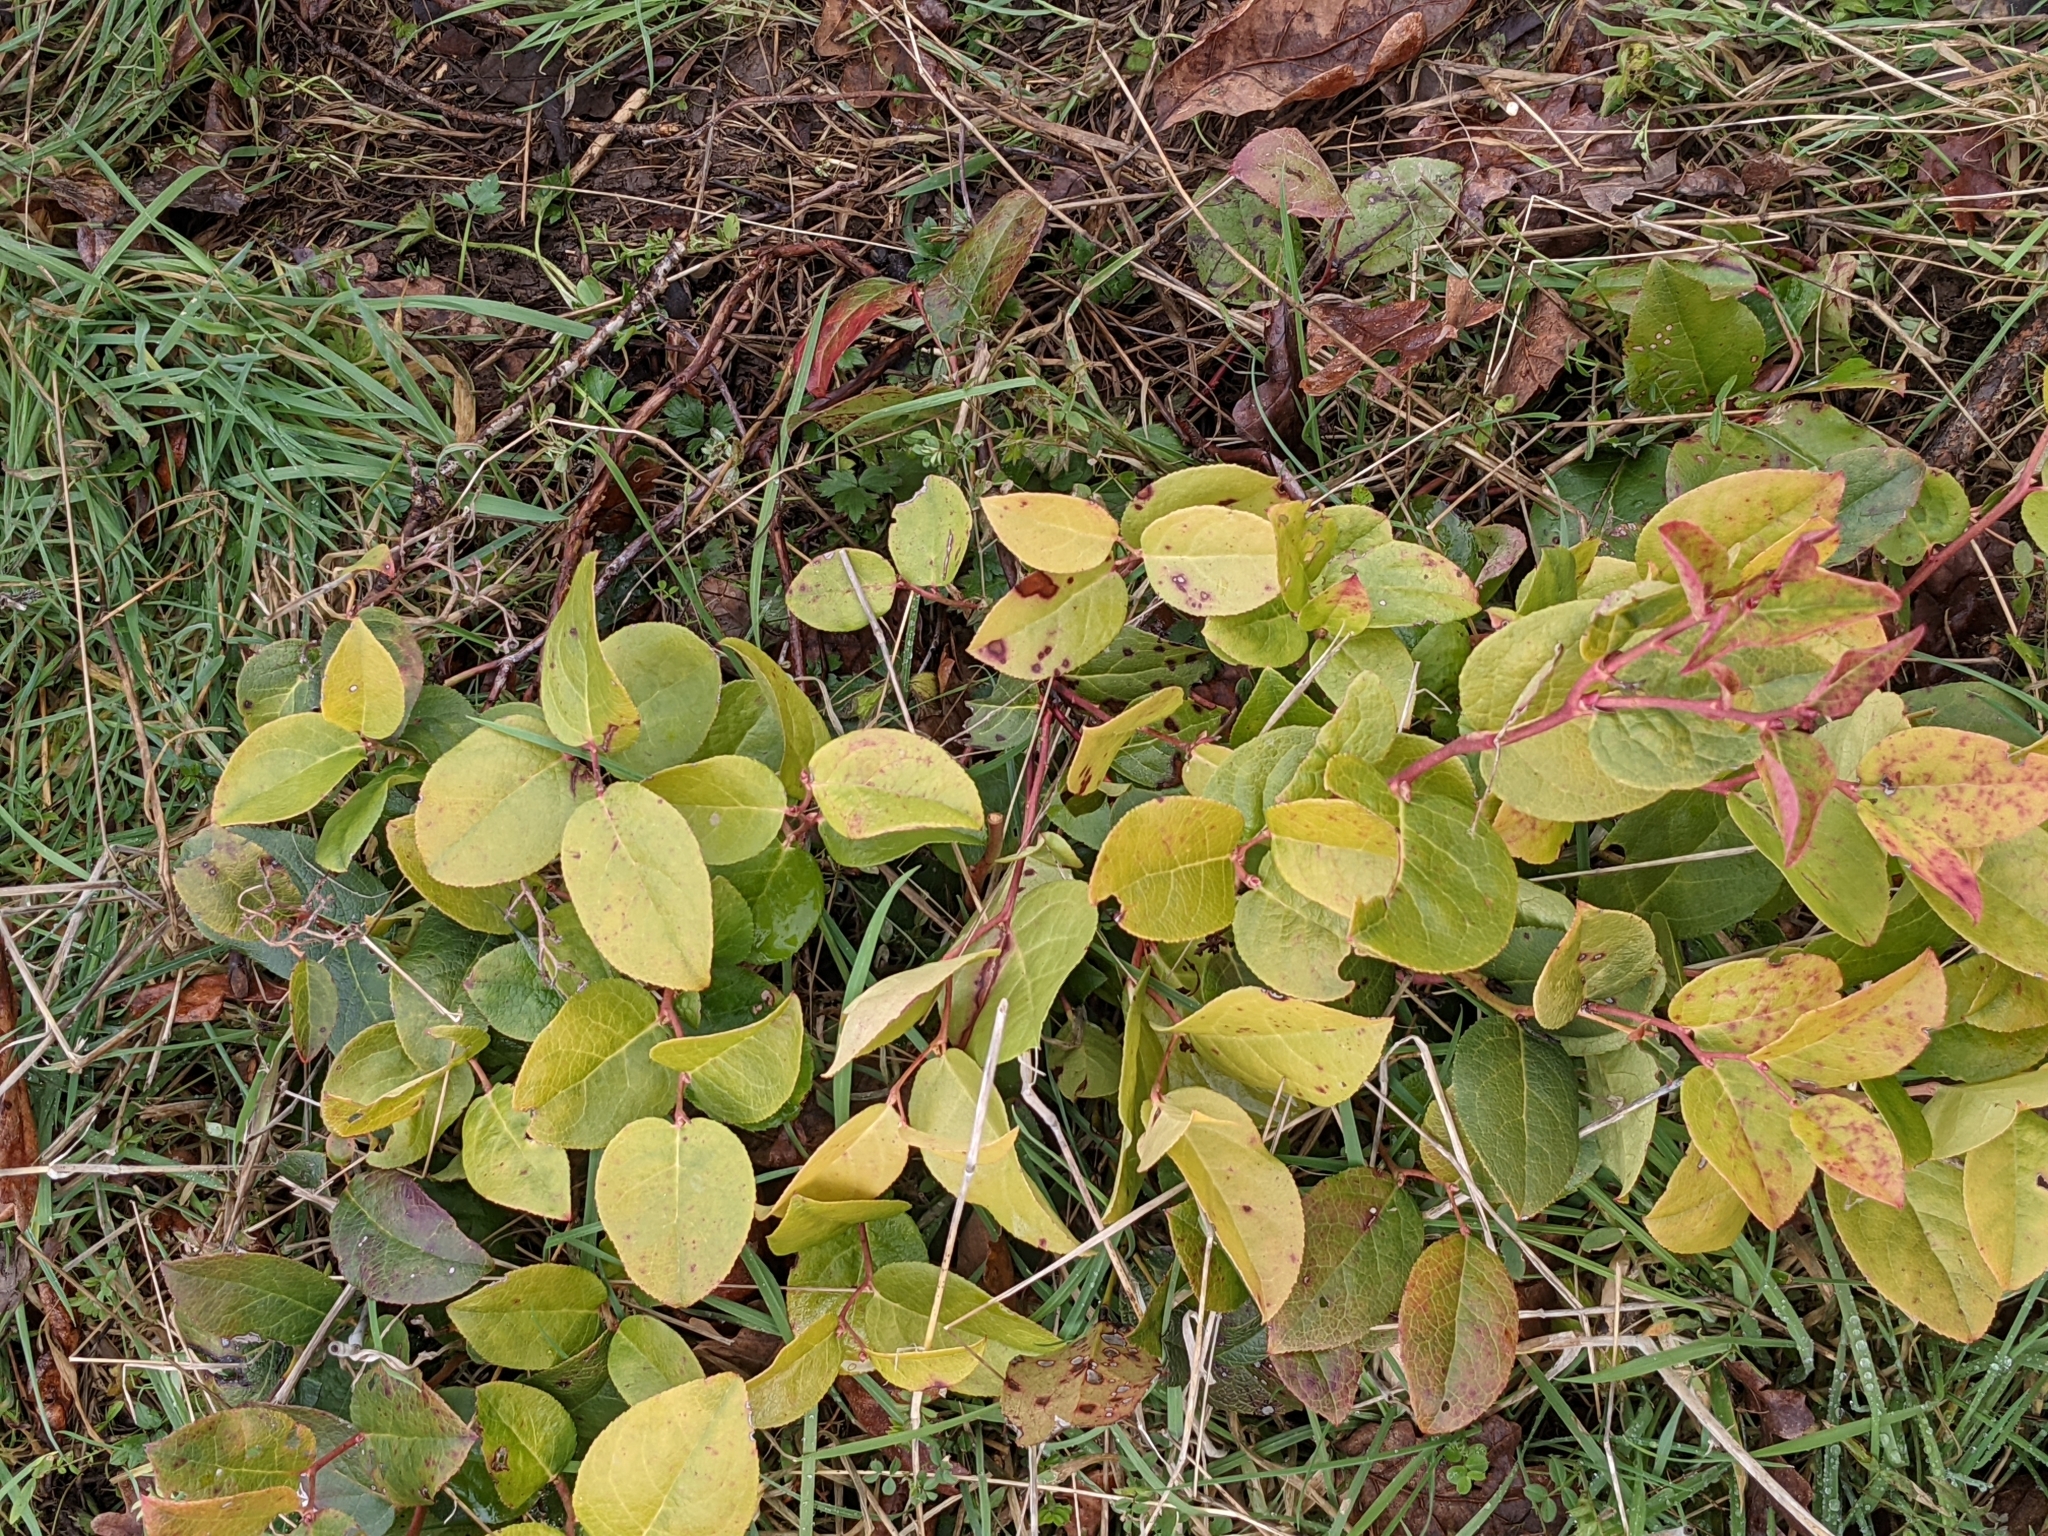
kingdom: Plantae
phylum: Tracheophyta
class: Magnoliopsida
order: Ericales
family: Ericaceae
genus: Gaultheria
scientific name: Gaultheria shallon
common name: Shallon
